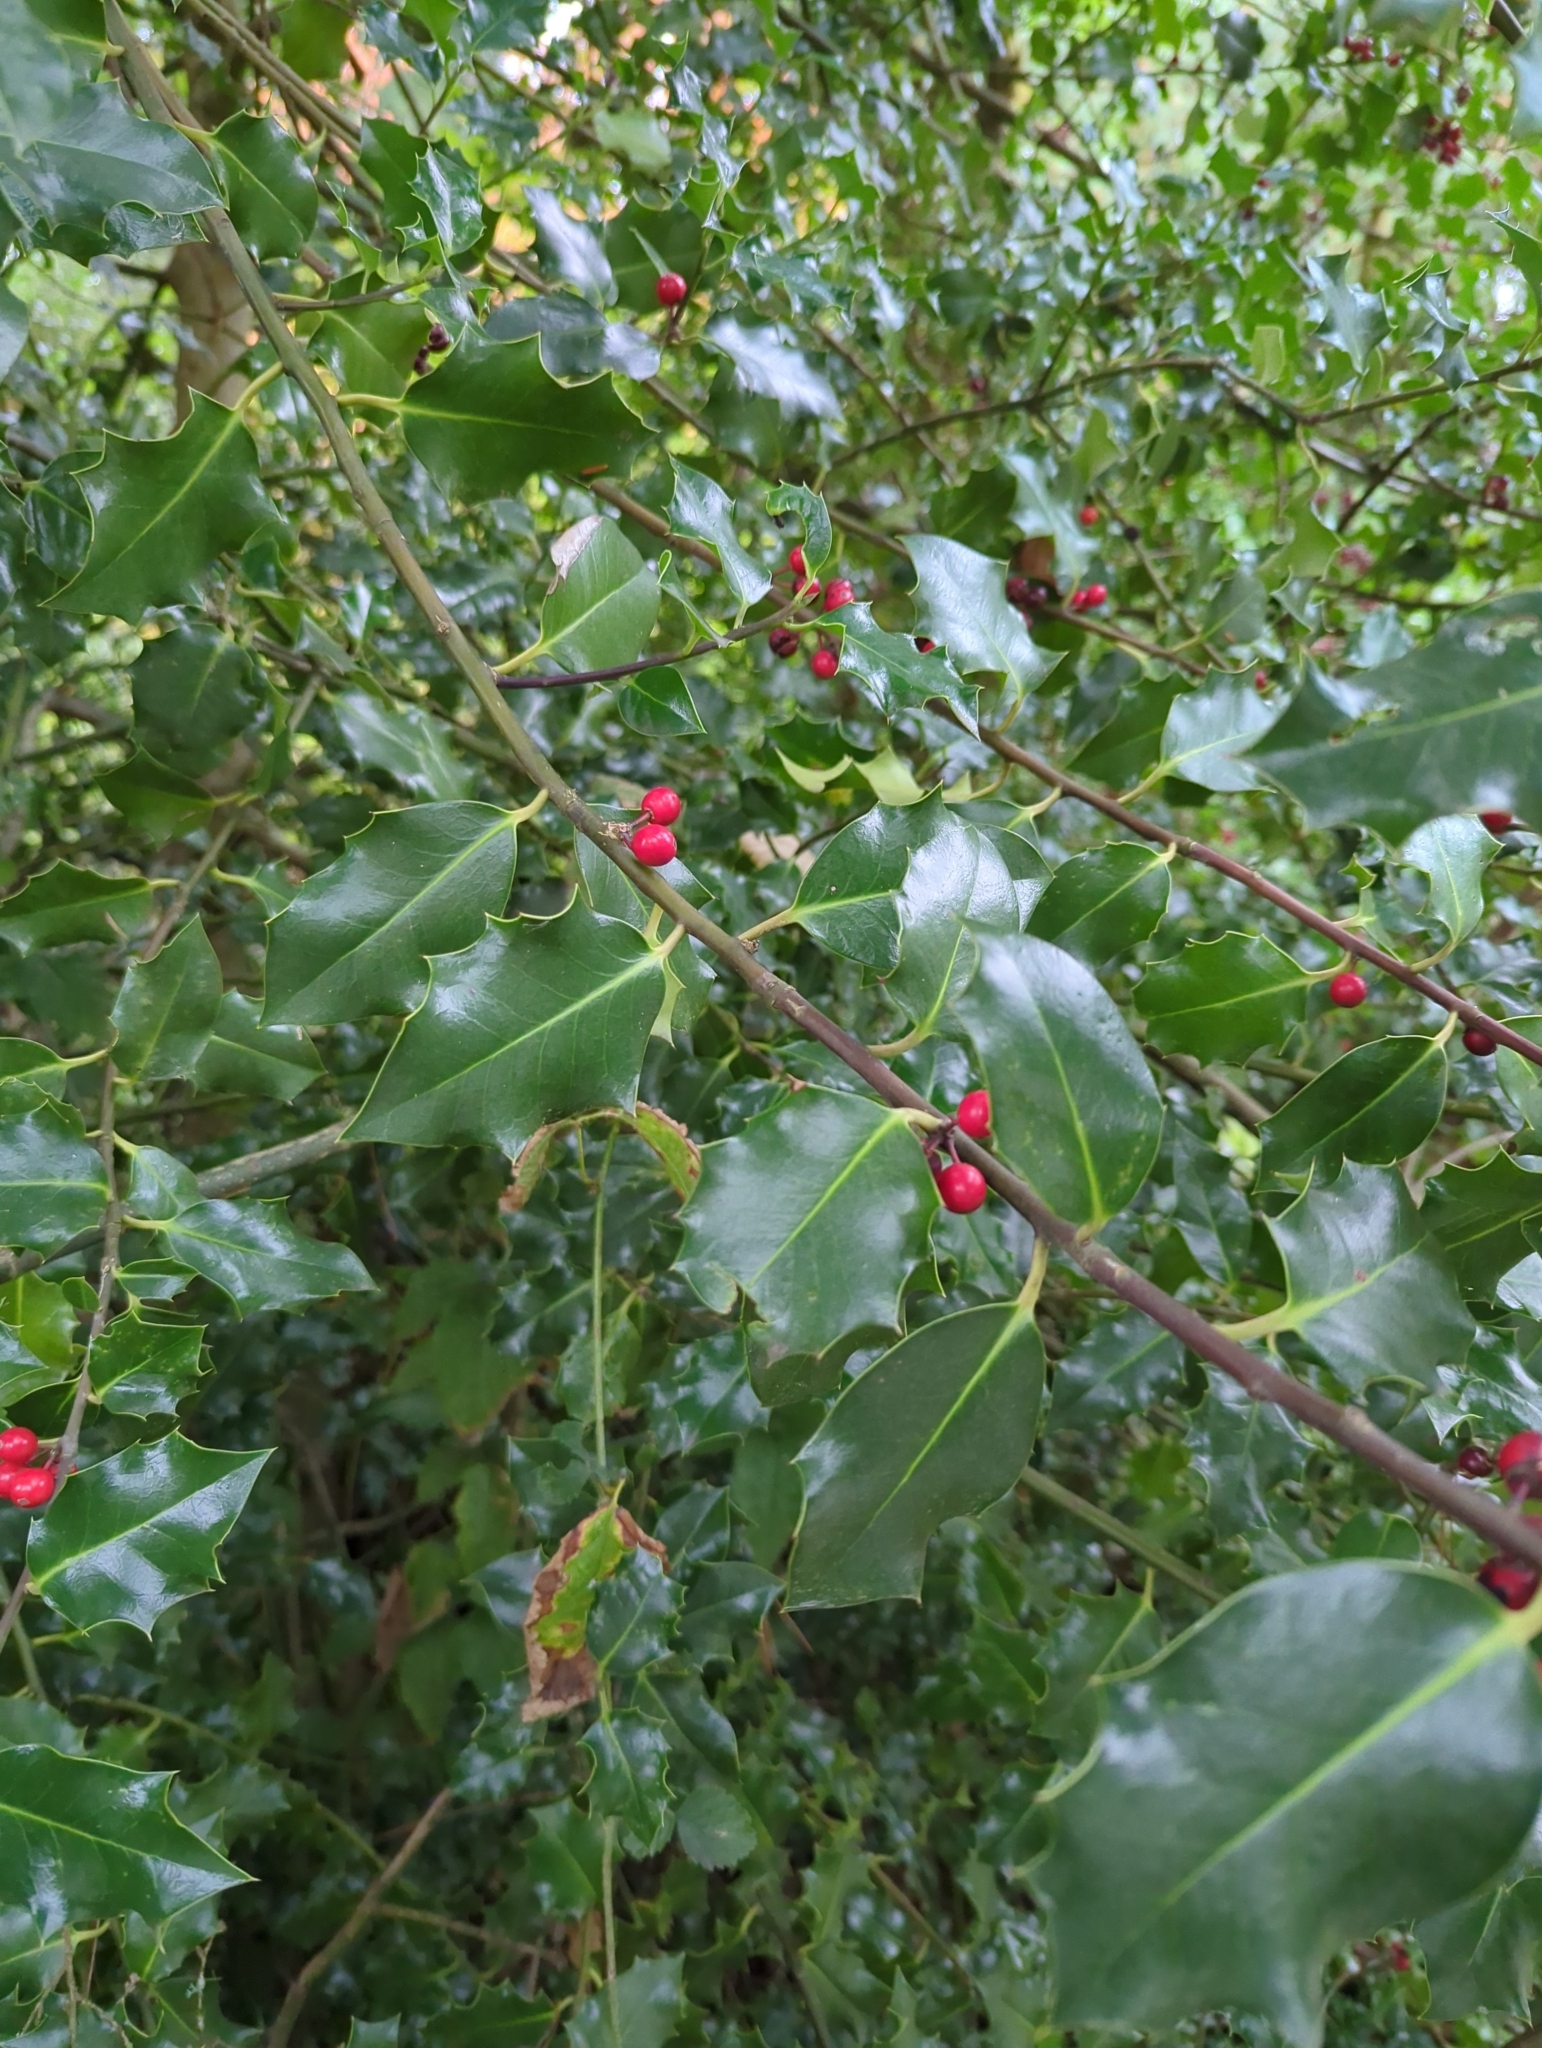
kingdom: Plantae
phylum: Tracheophyta
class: Magnoliopsida
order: Aquifoliales
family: Aquifoliaceae
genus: Ilex
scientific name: Ilex aquifolium
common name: English holly
